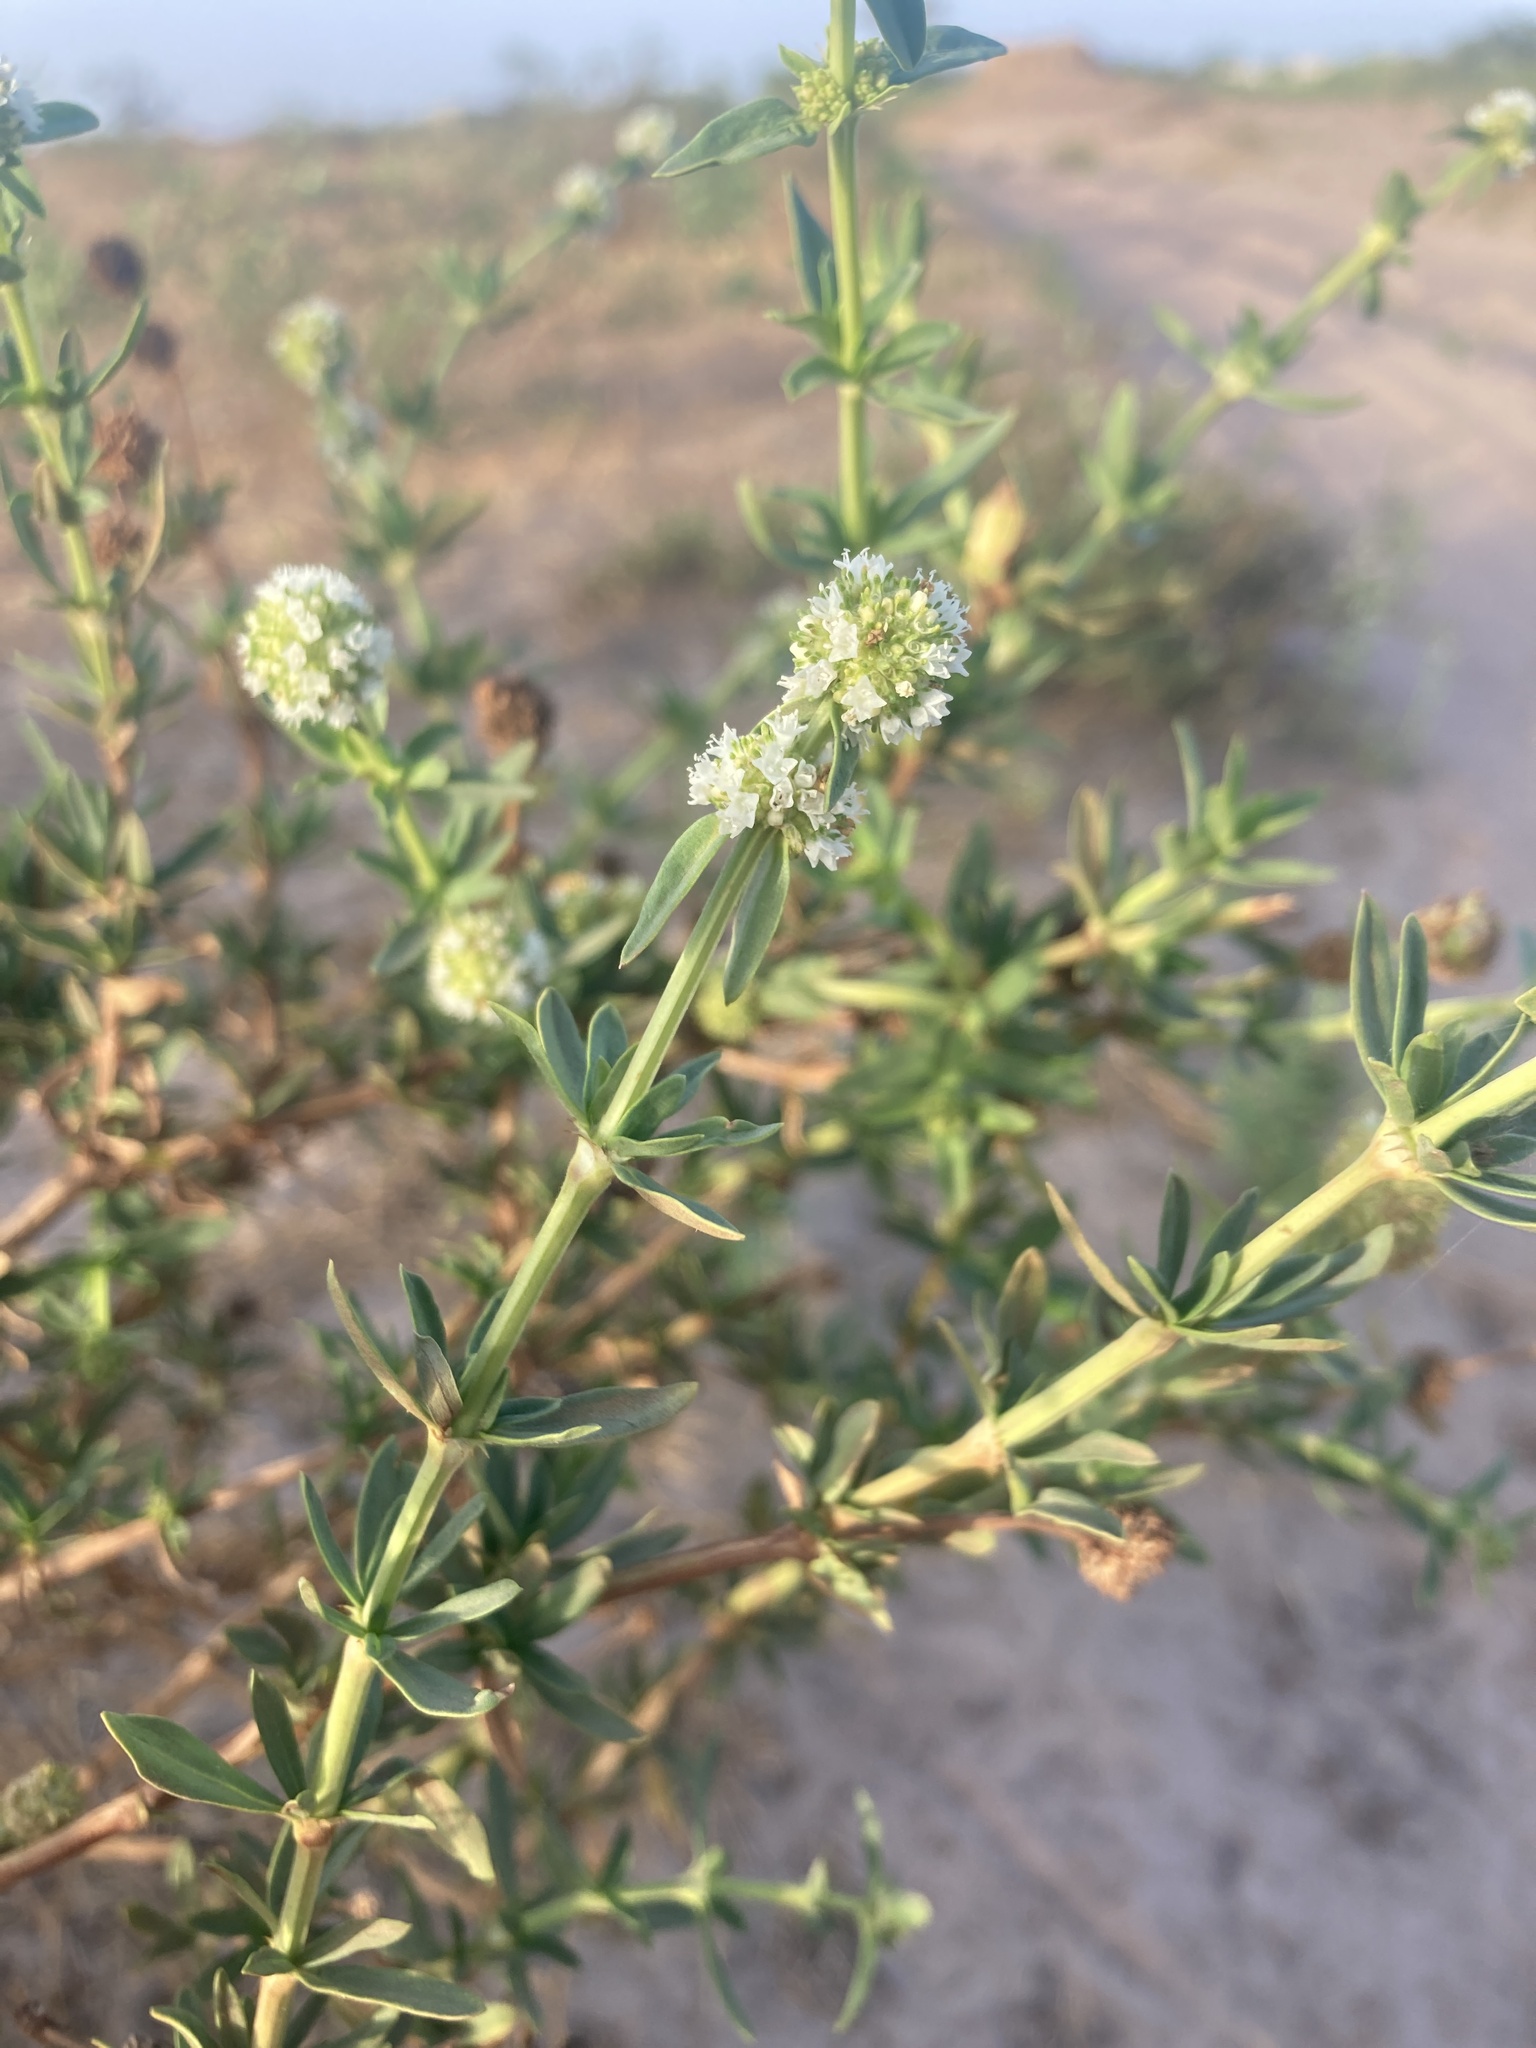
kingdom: Plantae
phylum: Tracheophyta
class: Magnoliopsida
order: Gentianales
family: Rubiaceae
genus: Spermacoce
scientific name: Spermacoce verticillata
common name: Shrubby false buttonweed
